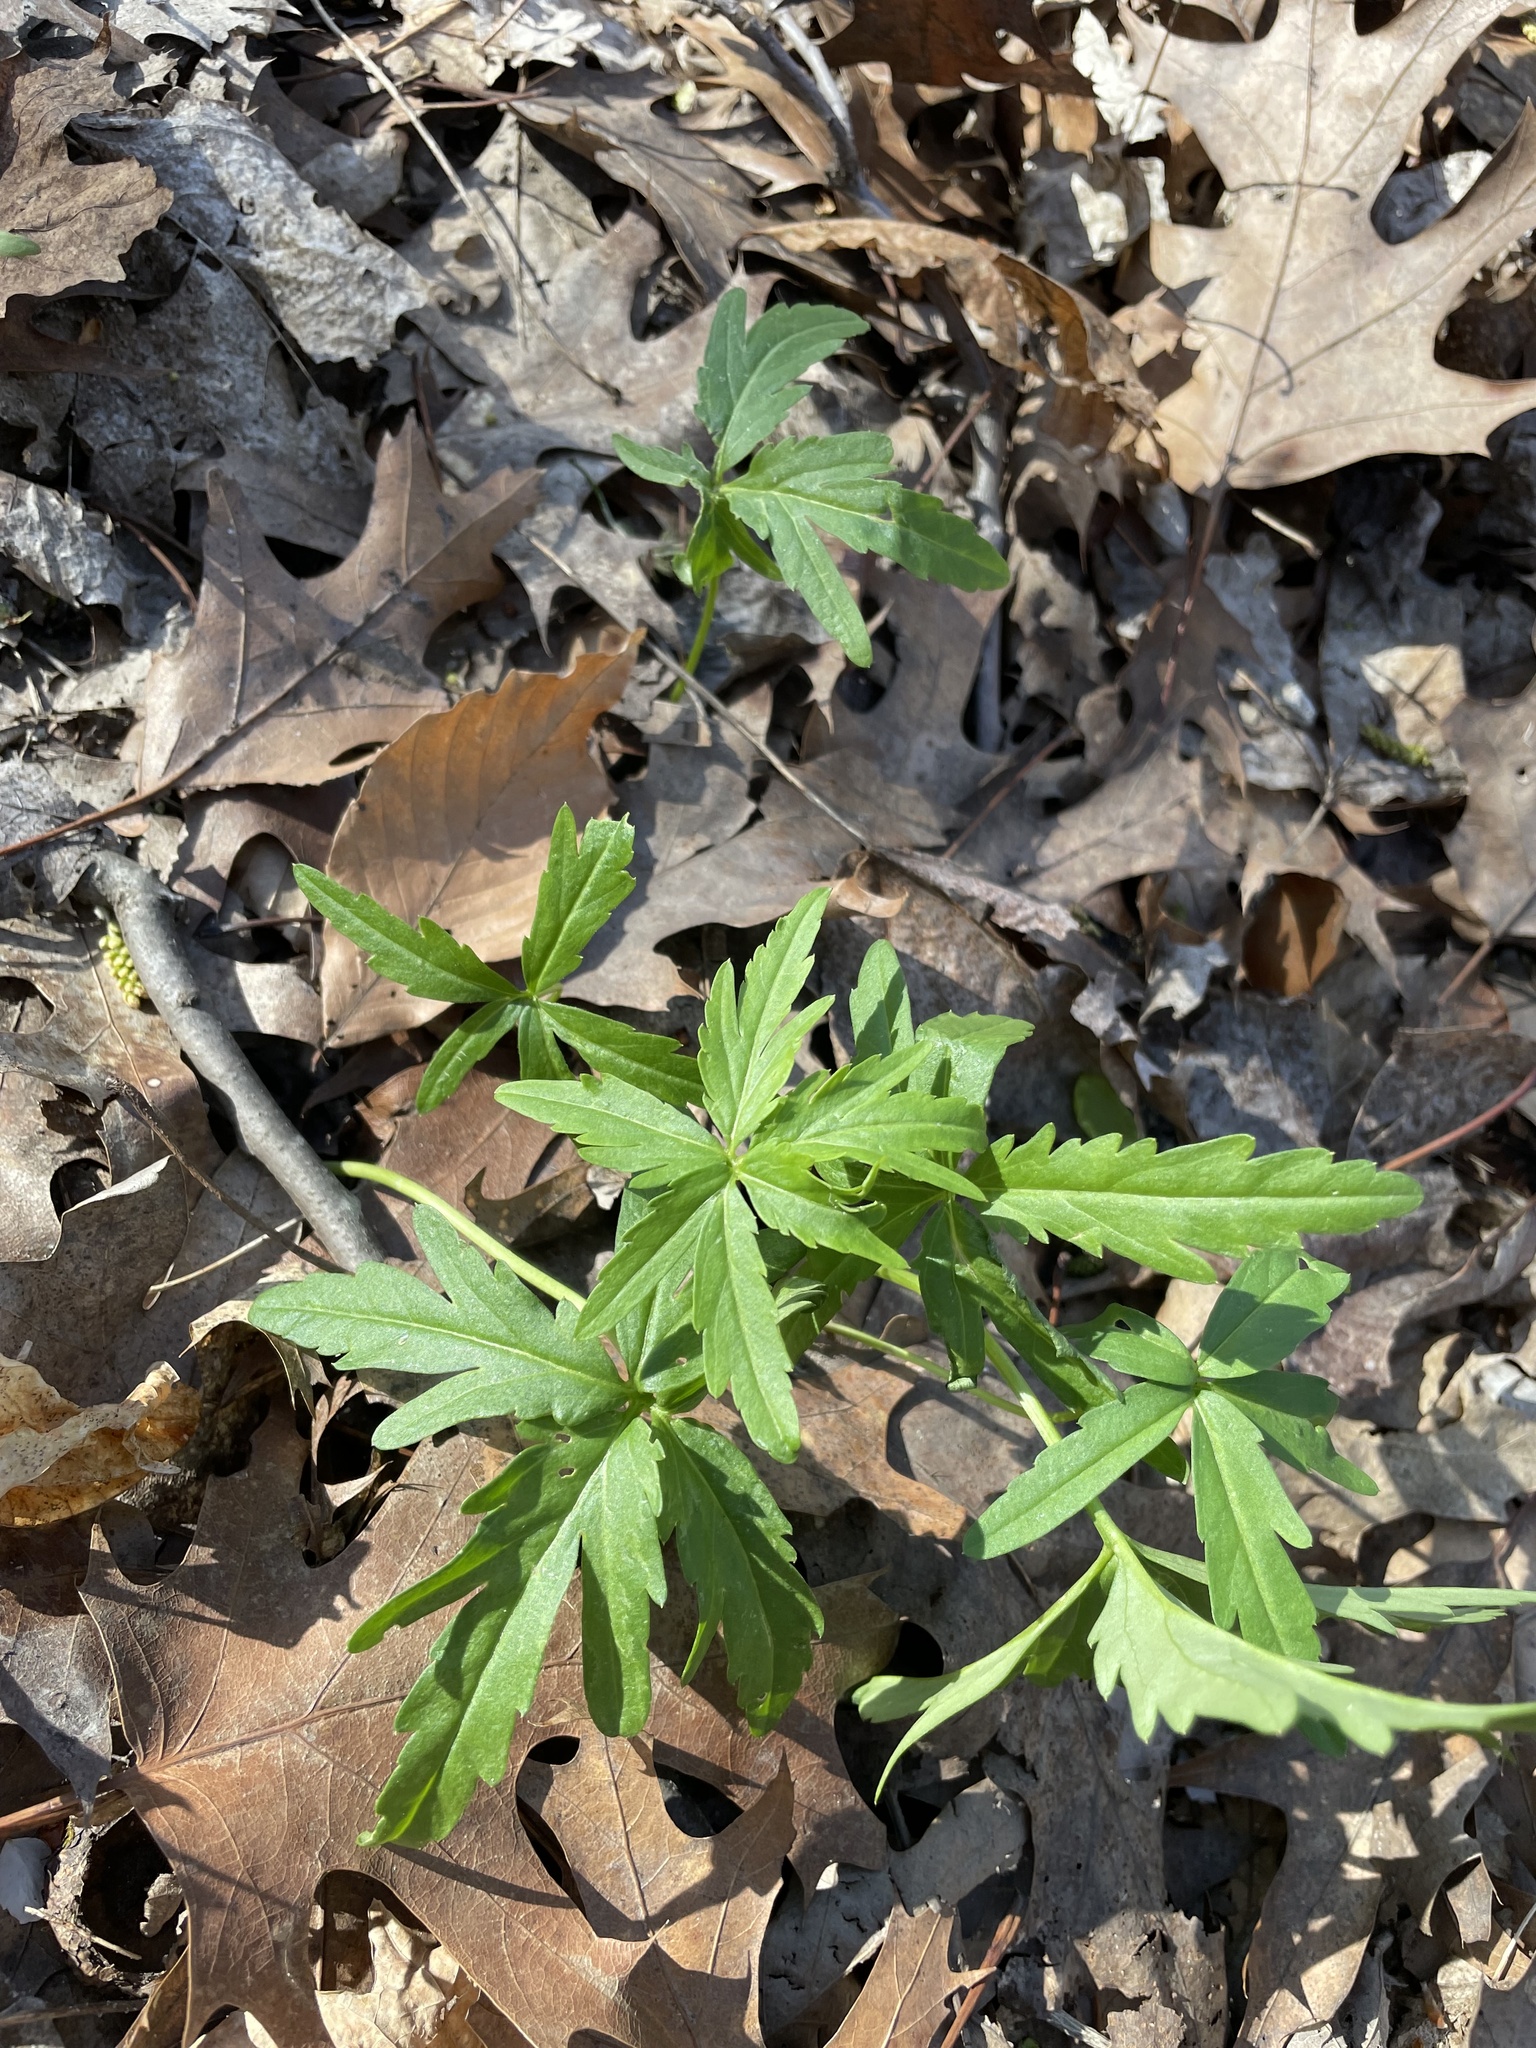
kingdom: Plantae
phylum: Tracheophyta
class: Magnoliopsida
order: Brassicales
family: Brassicaceae
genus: Cardamine
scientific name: Cardamine concatenata
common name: Cut-leaf toothcup
